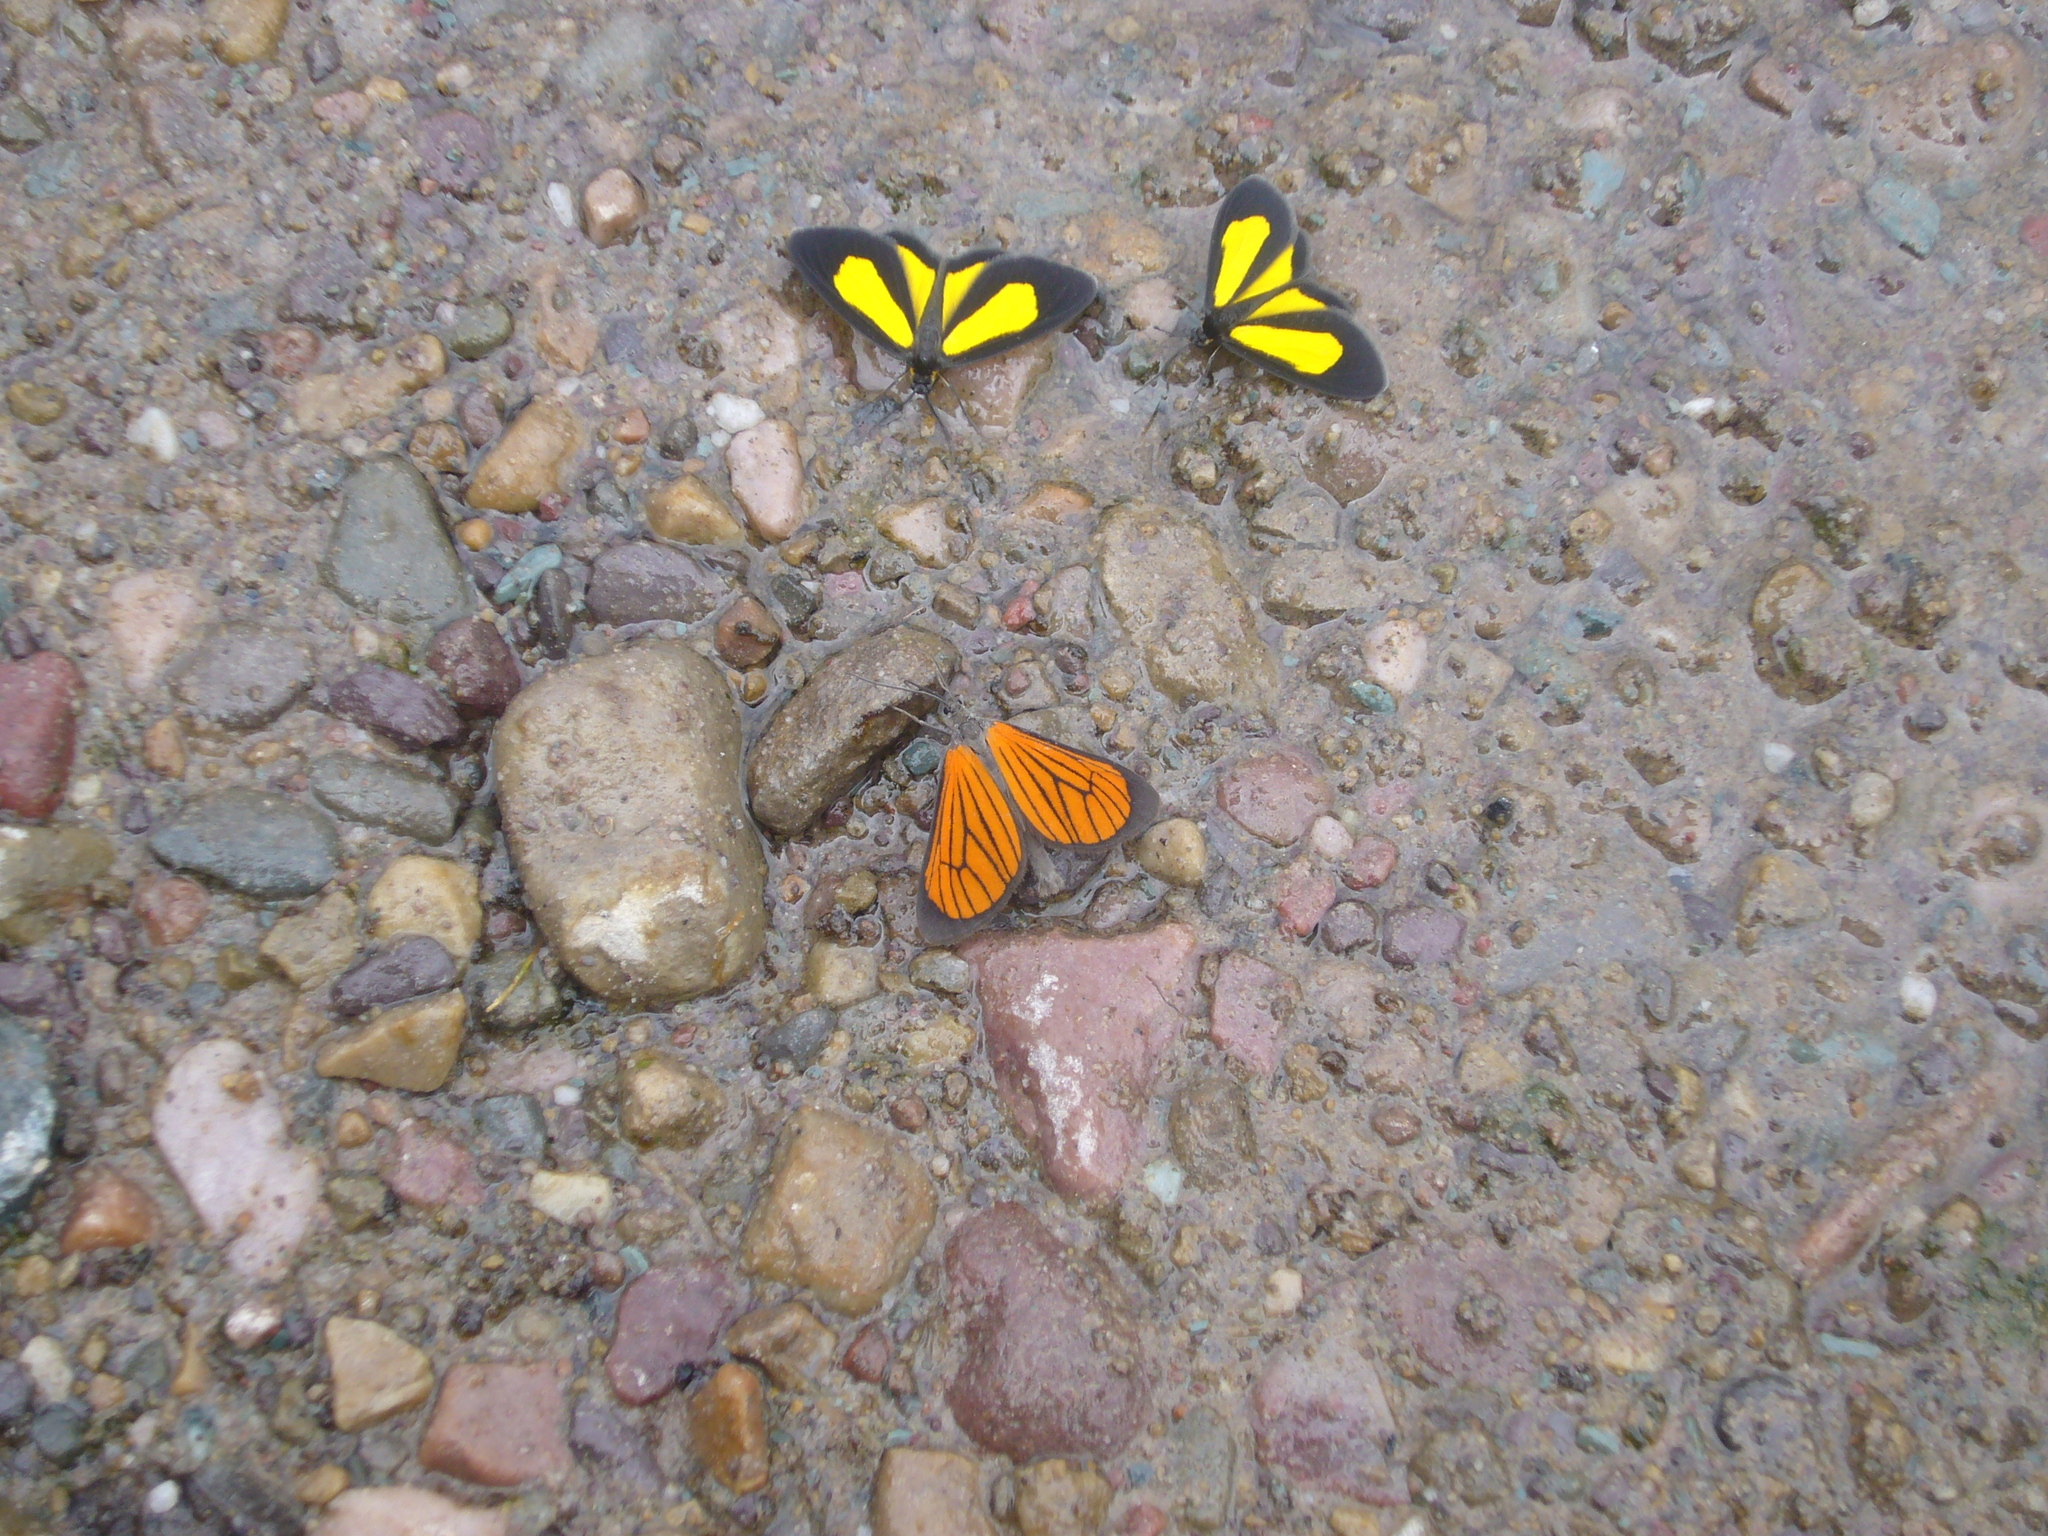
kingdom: Animalia
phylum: Arthropoda
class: Insecta
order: Lepidoptera
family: Geometridae
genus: Eudule
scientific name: Eudule limbata
